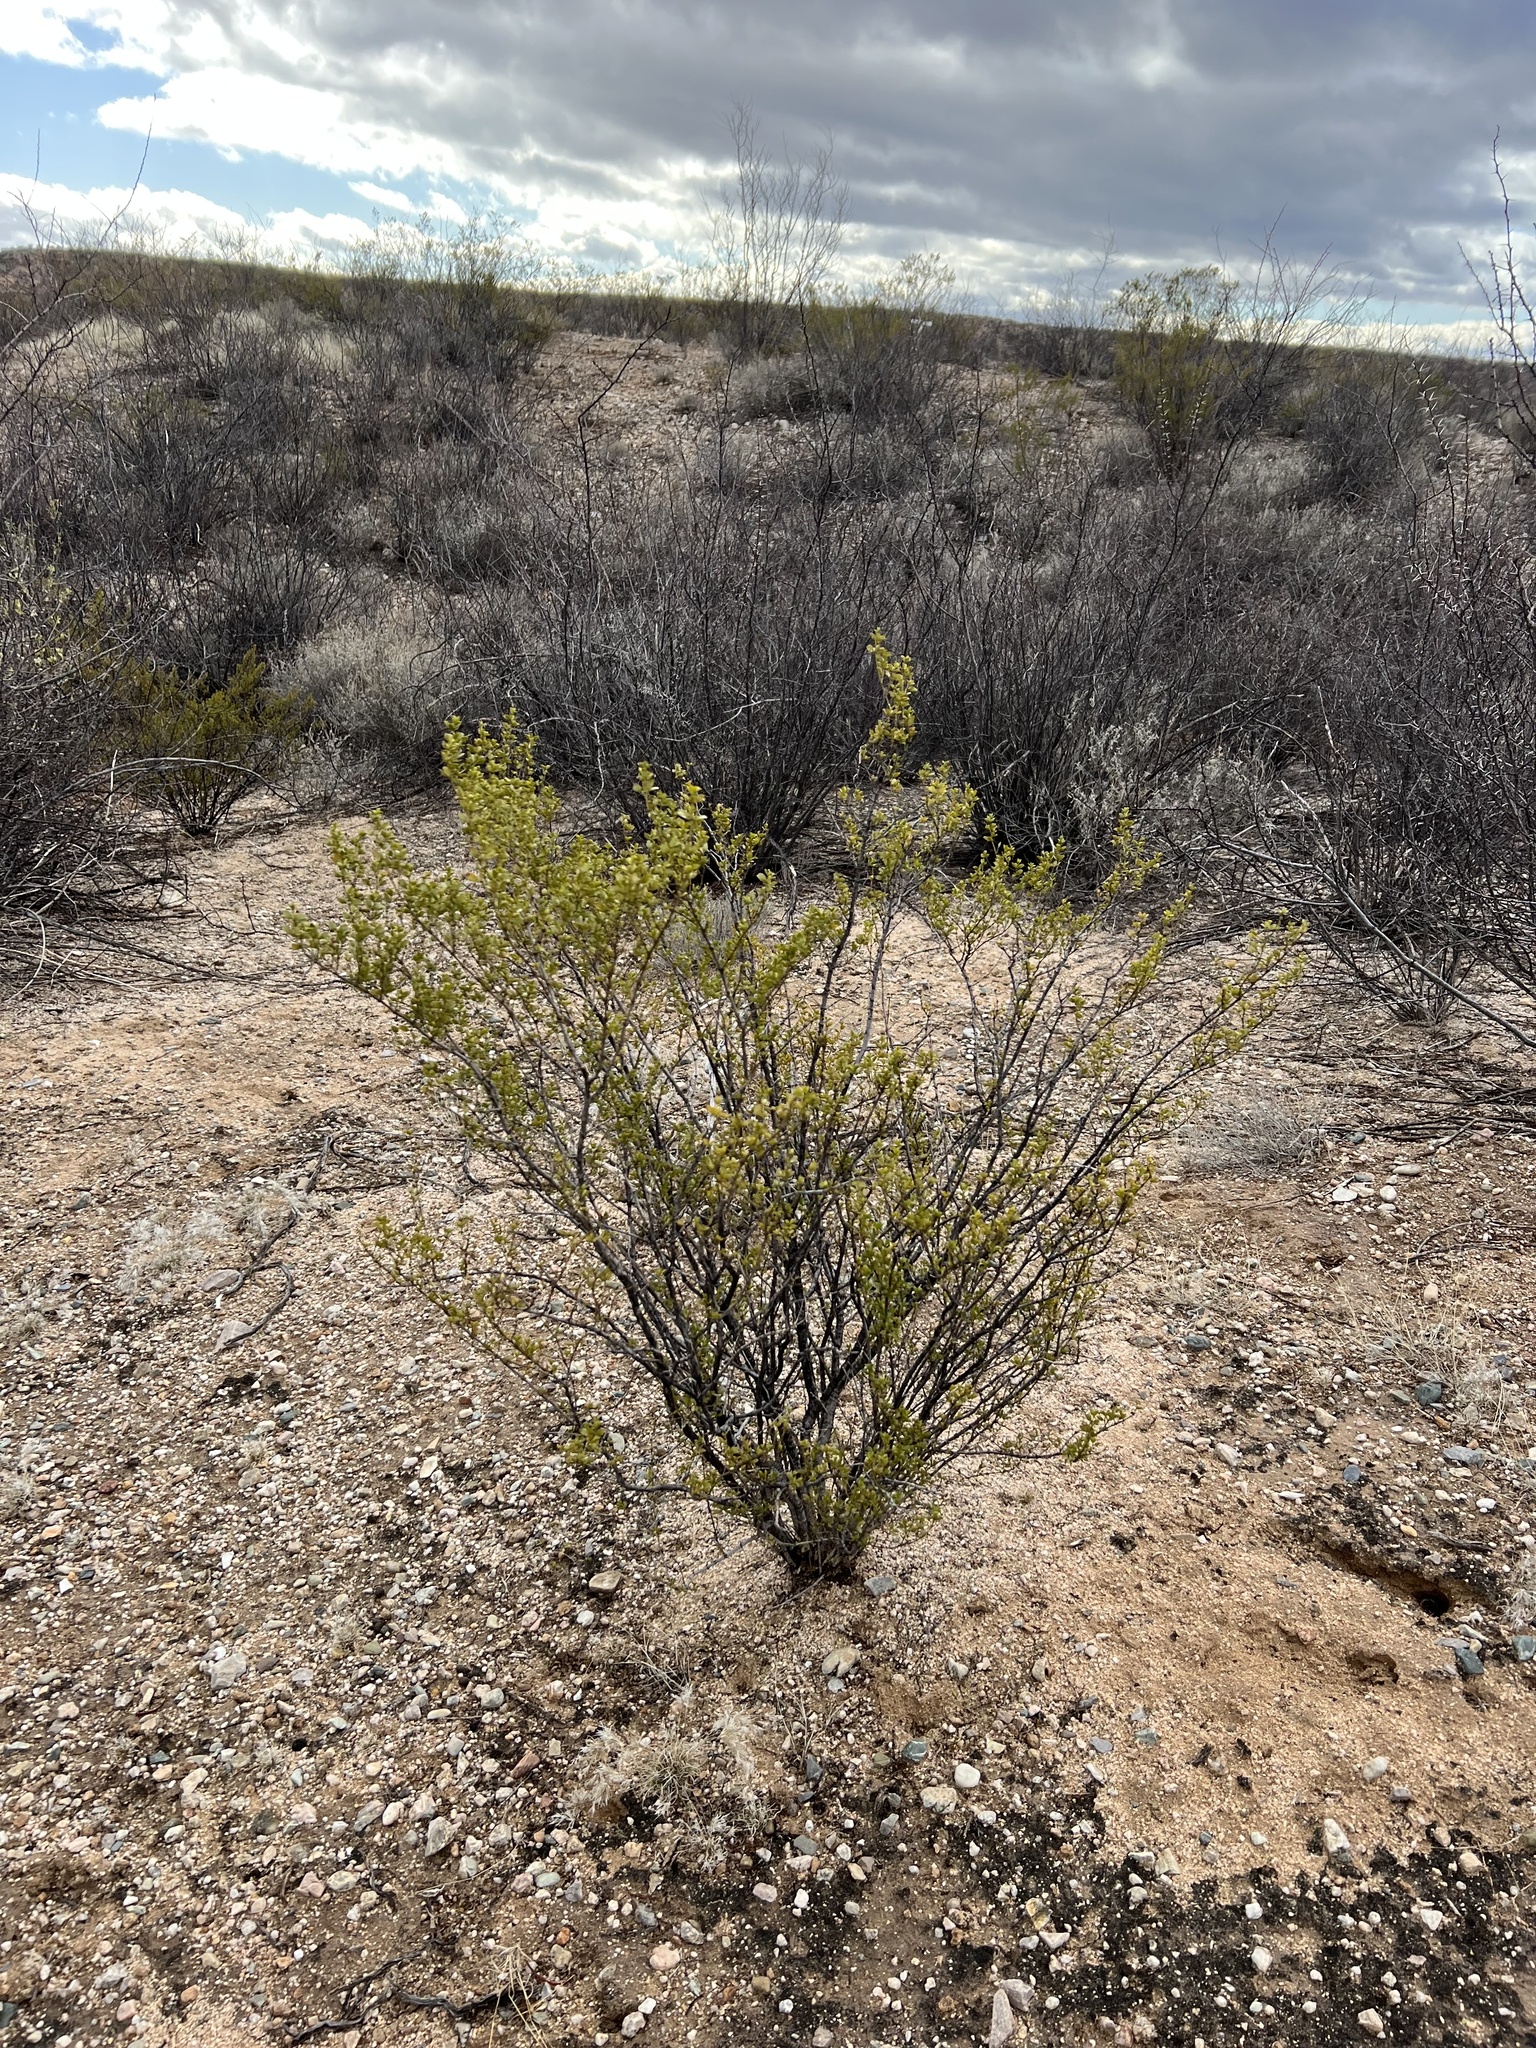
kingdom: Plantae
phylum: Tracheophyta
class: Magnoliopsida
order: Zygophyllales
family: Zygophyllaceae
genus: Larrea
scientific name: Larrea tridentata
